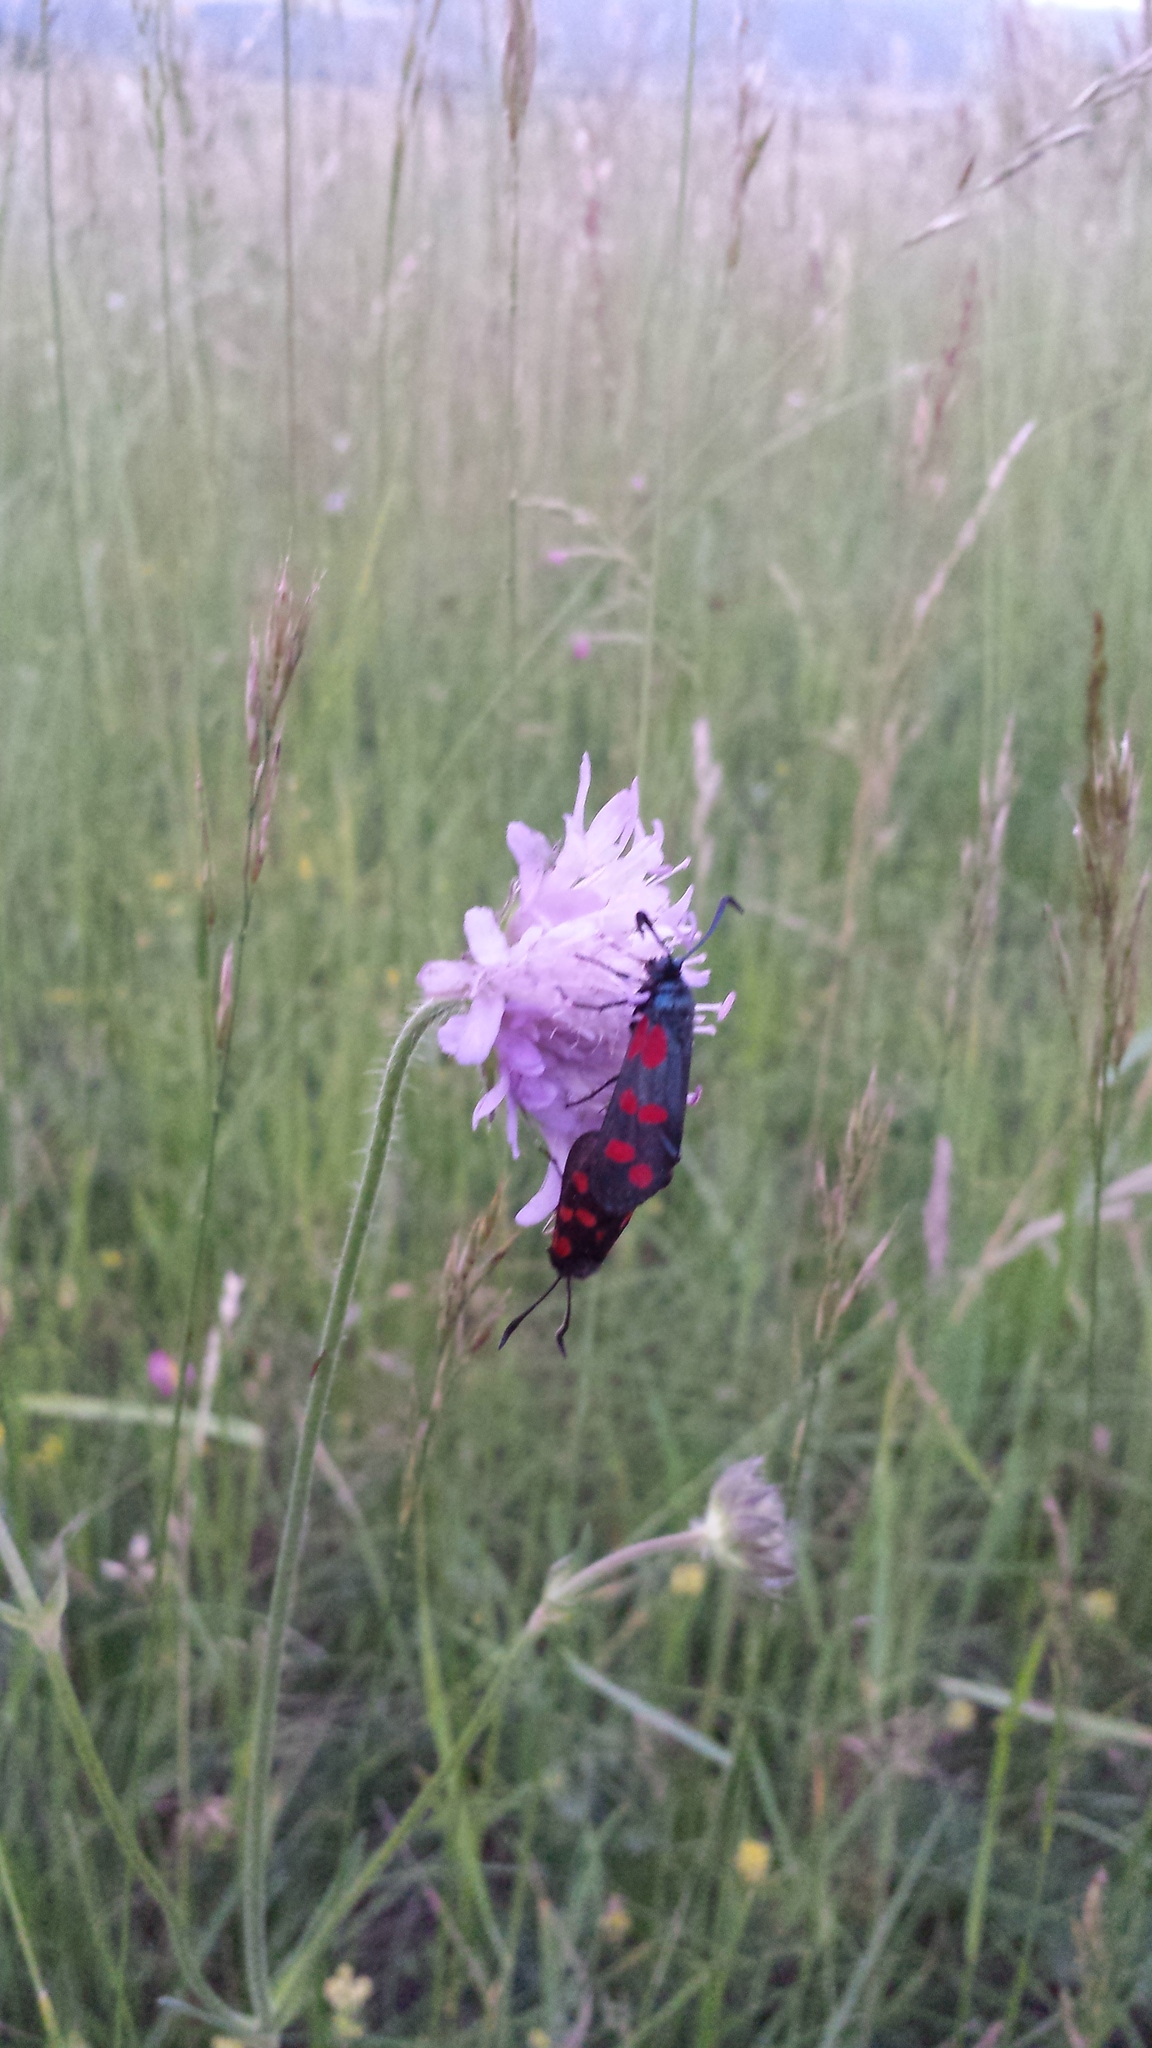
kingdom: Animalia
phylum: Arthropoda
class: Insecta
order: Lepidoptera
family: Zygaenidae
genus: Zygaena
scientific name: Zygaena filipendulae
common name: Six-spot burnet
